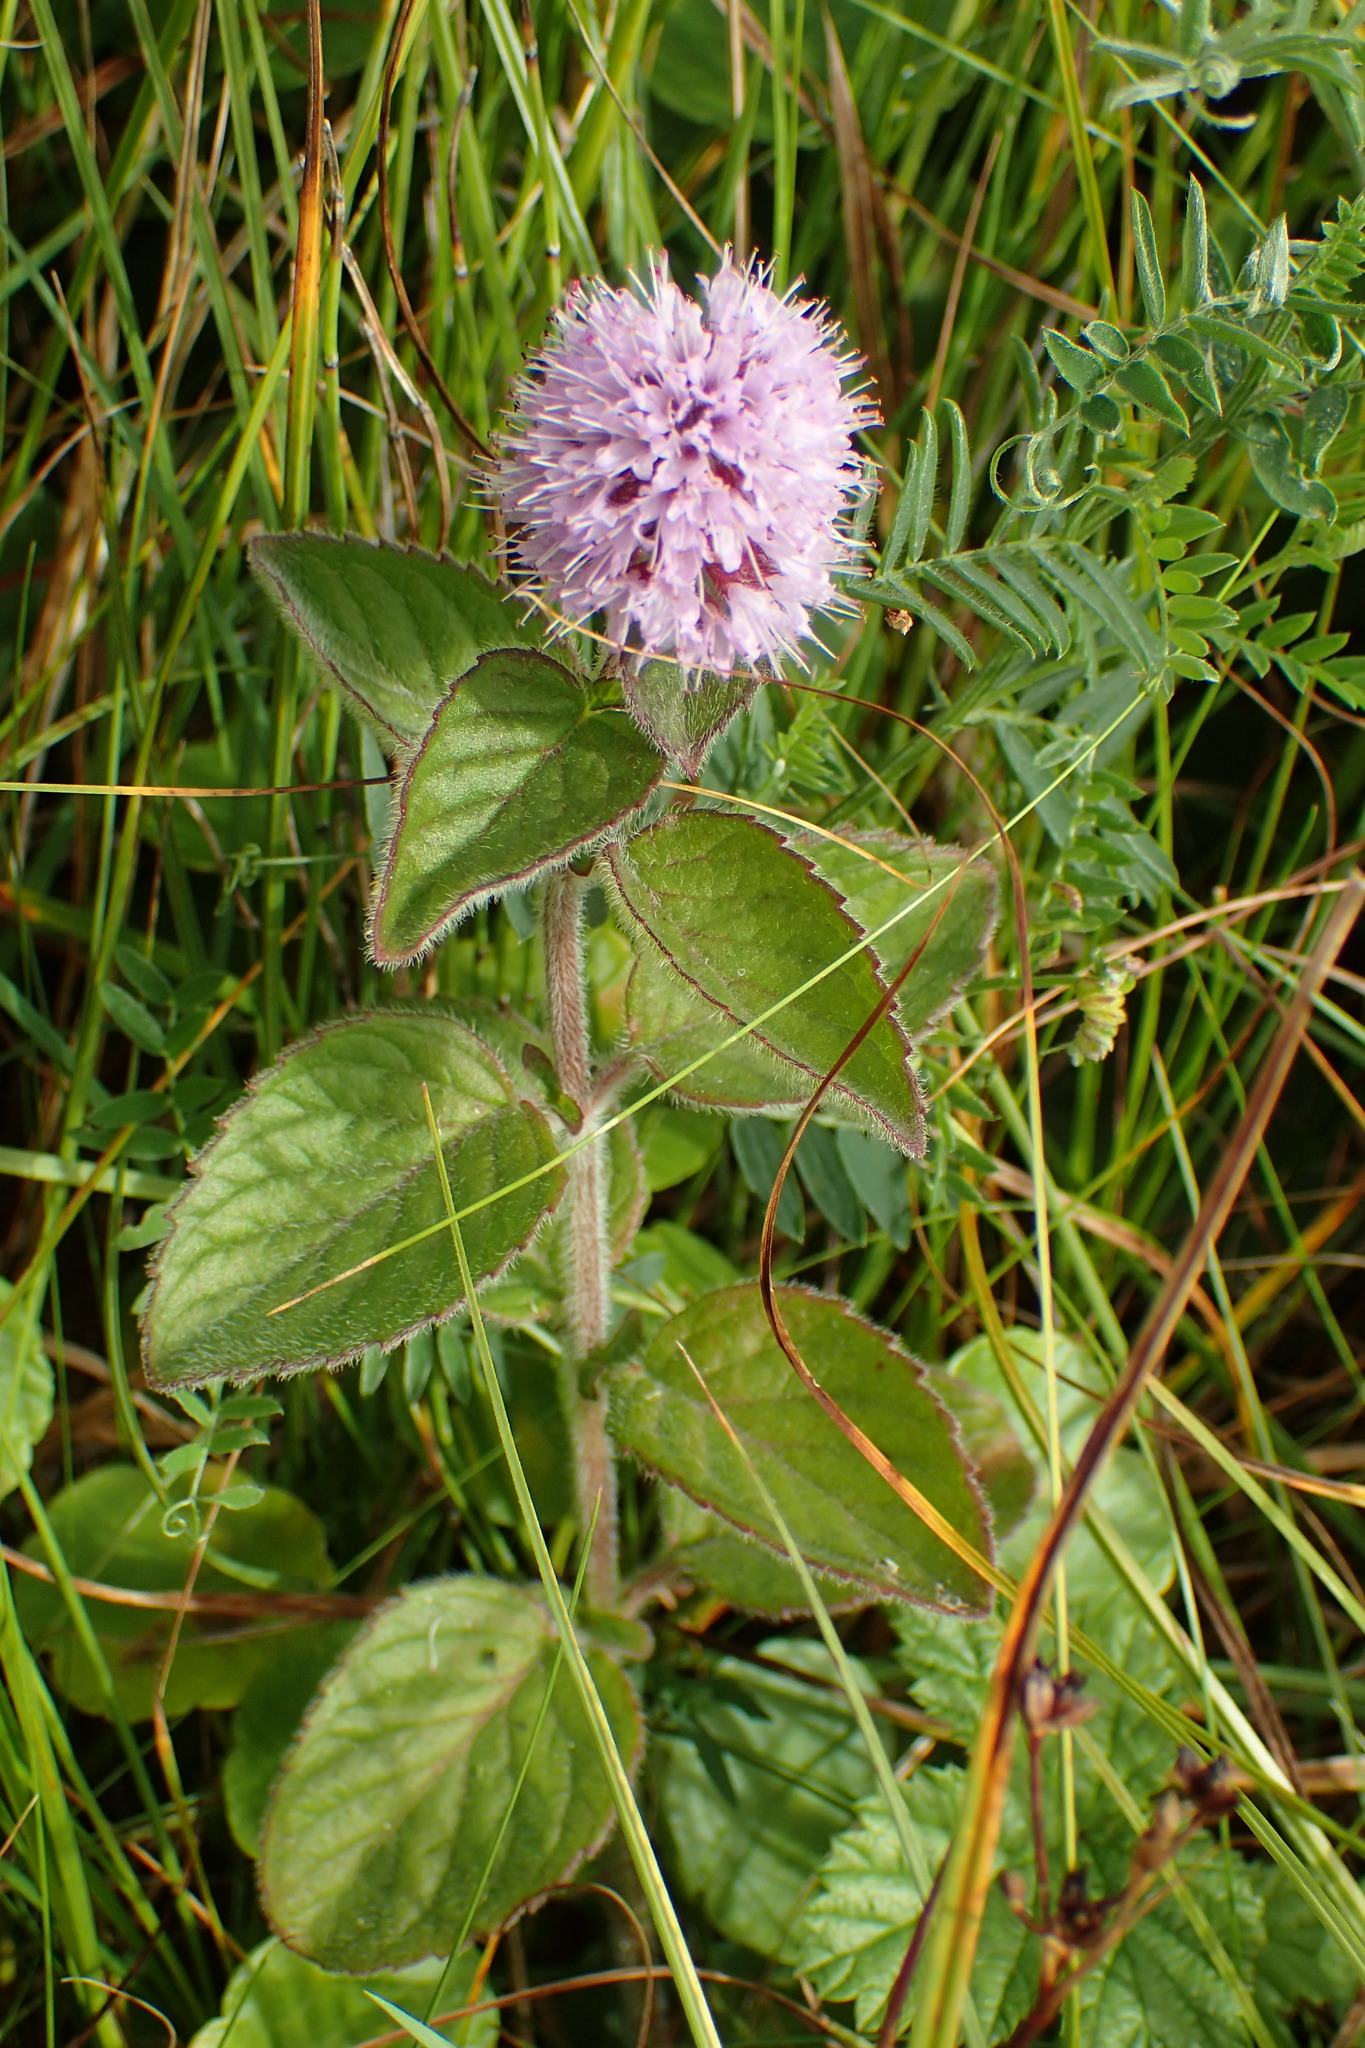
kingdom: Plantae
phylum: Tracheophyta
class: Magnoliopsida
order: Lamiales
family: Lamiaceae
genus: Mentha
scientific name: Mentha aquatica
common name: Water mint
